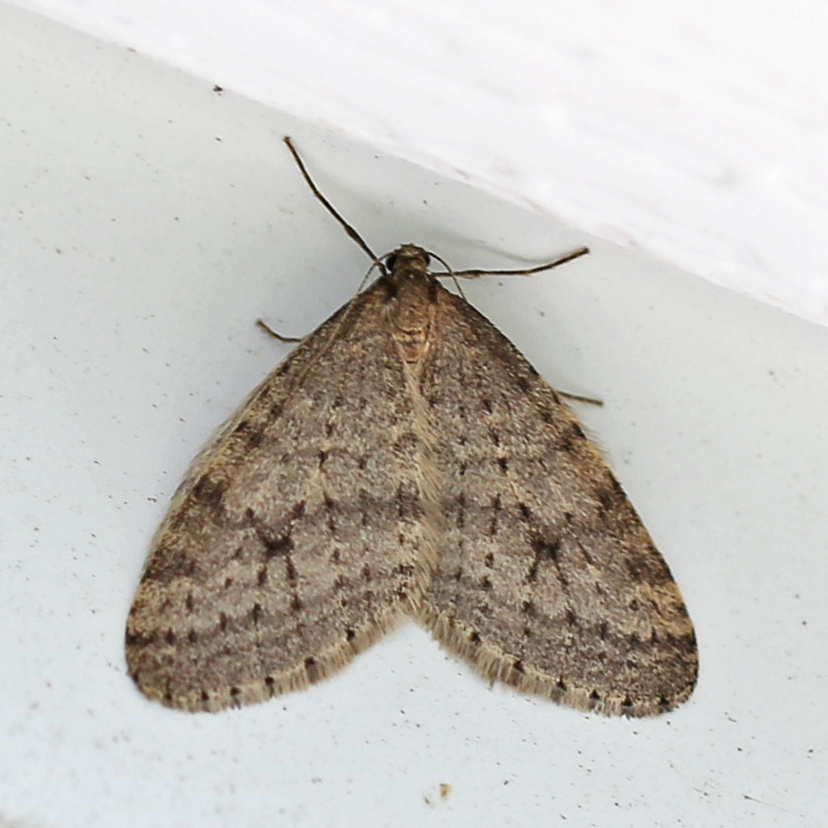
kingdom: Animalia
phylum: Arthropoda
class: Insecta
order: Lepidoptera
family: Geometridae
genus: Operophtera
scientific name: Operophtera bruceata
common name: Bruce spanworm
